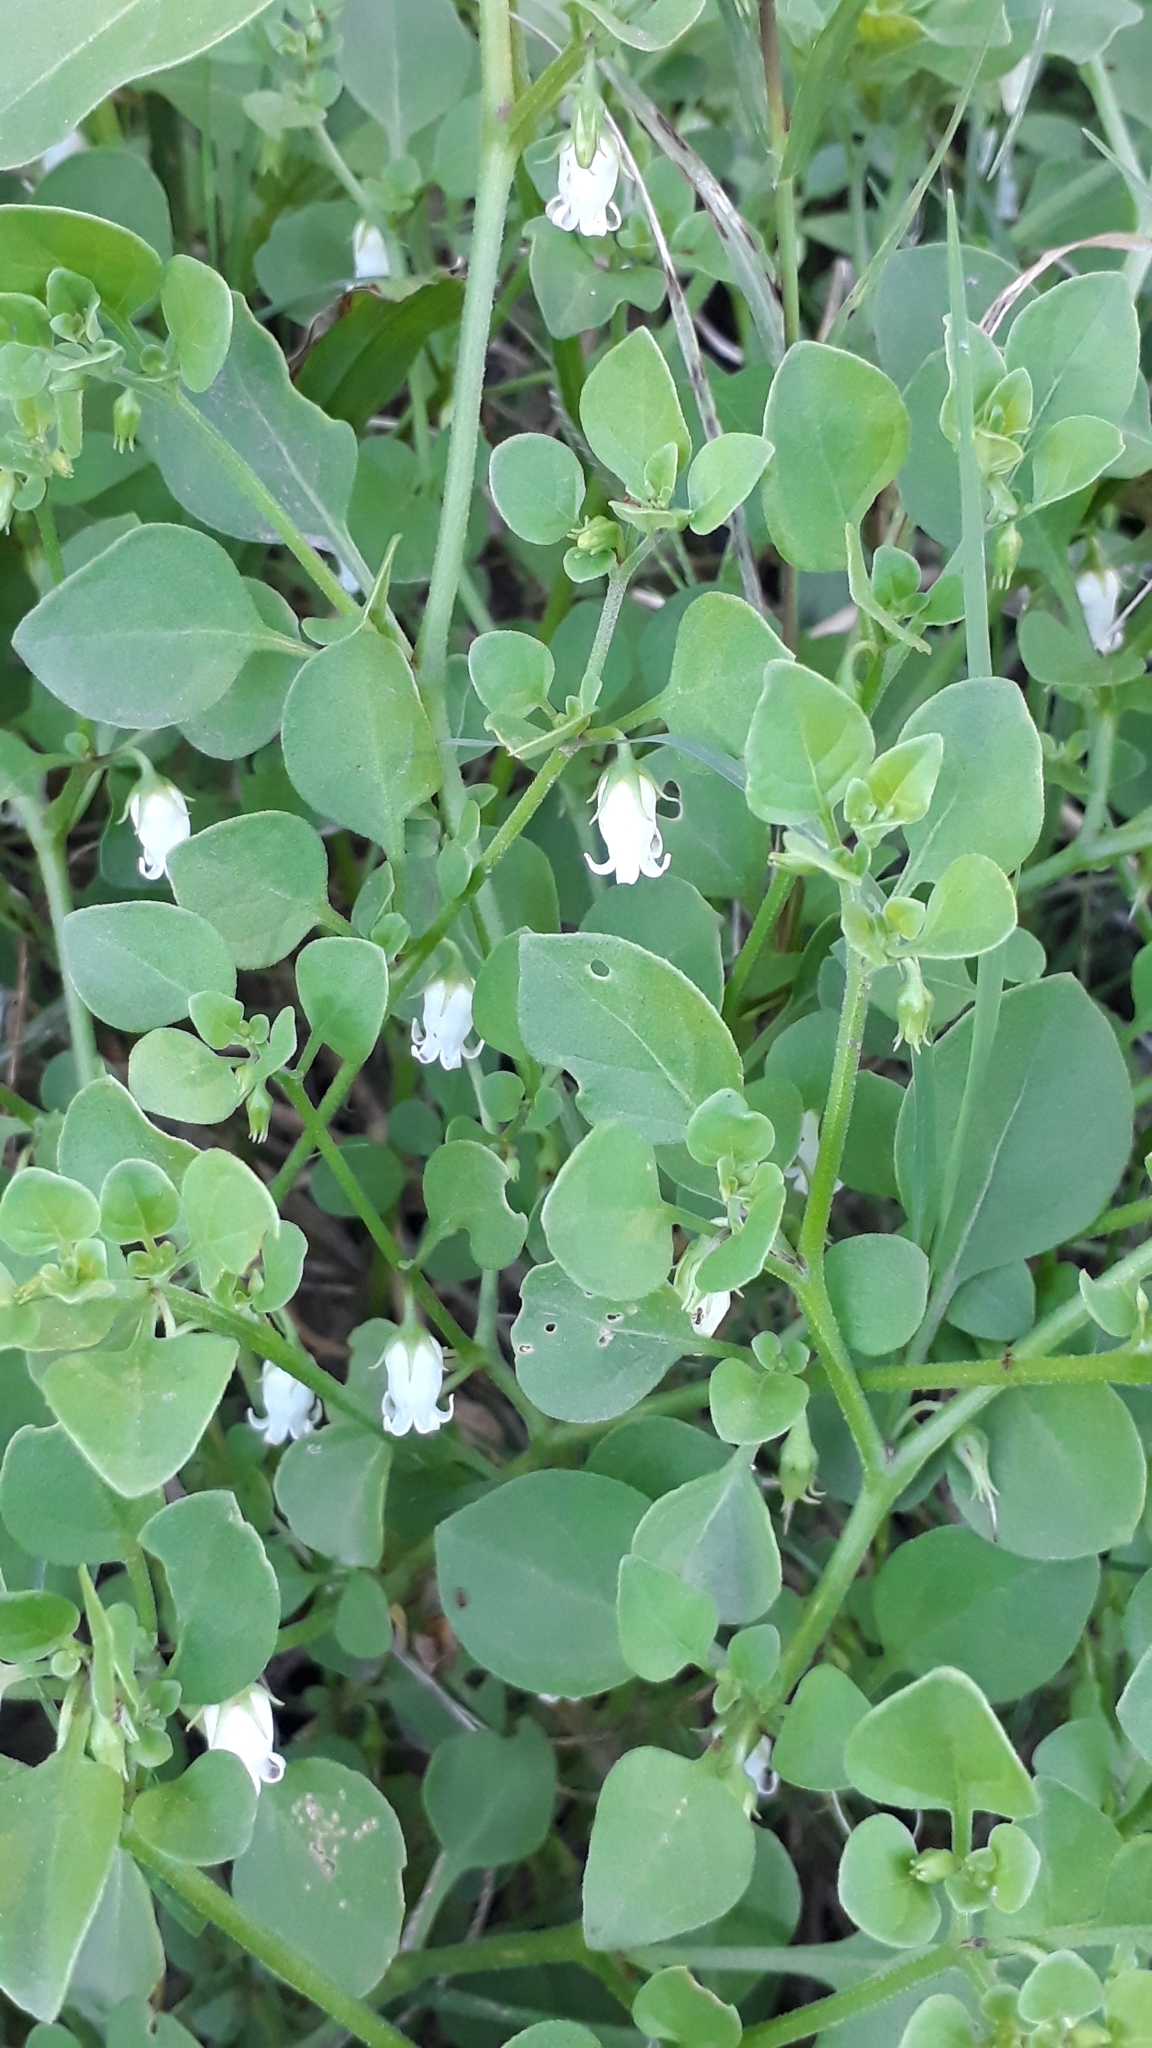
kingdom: Plantae
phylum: Tracheophyta
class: Magnoliopsida
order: Solanales
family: Solanaceae
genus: Salpichroa
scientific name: Salpichroa origanifolia
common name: Lily-of-the-valley-vine
